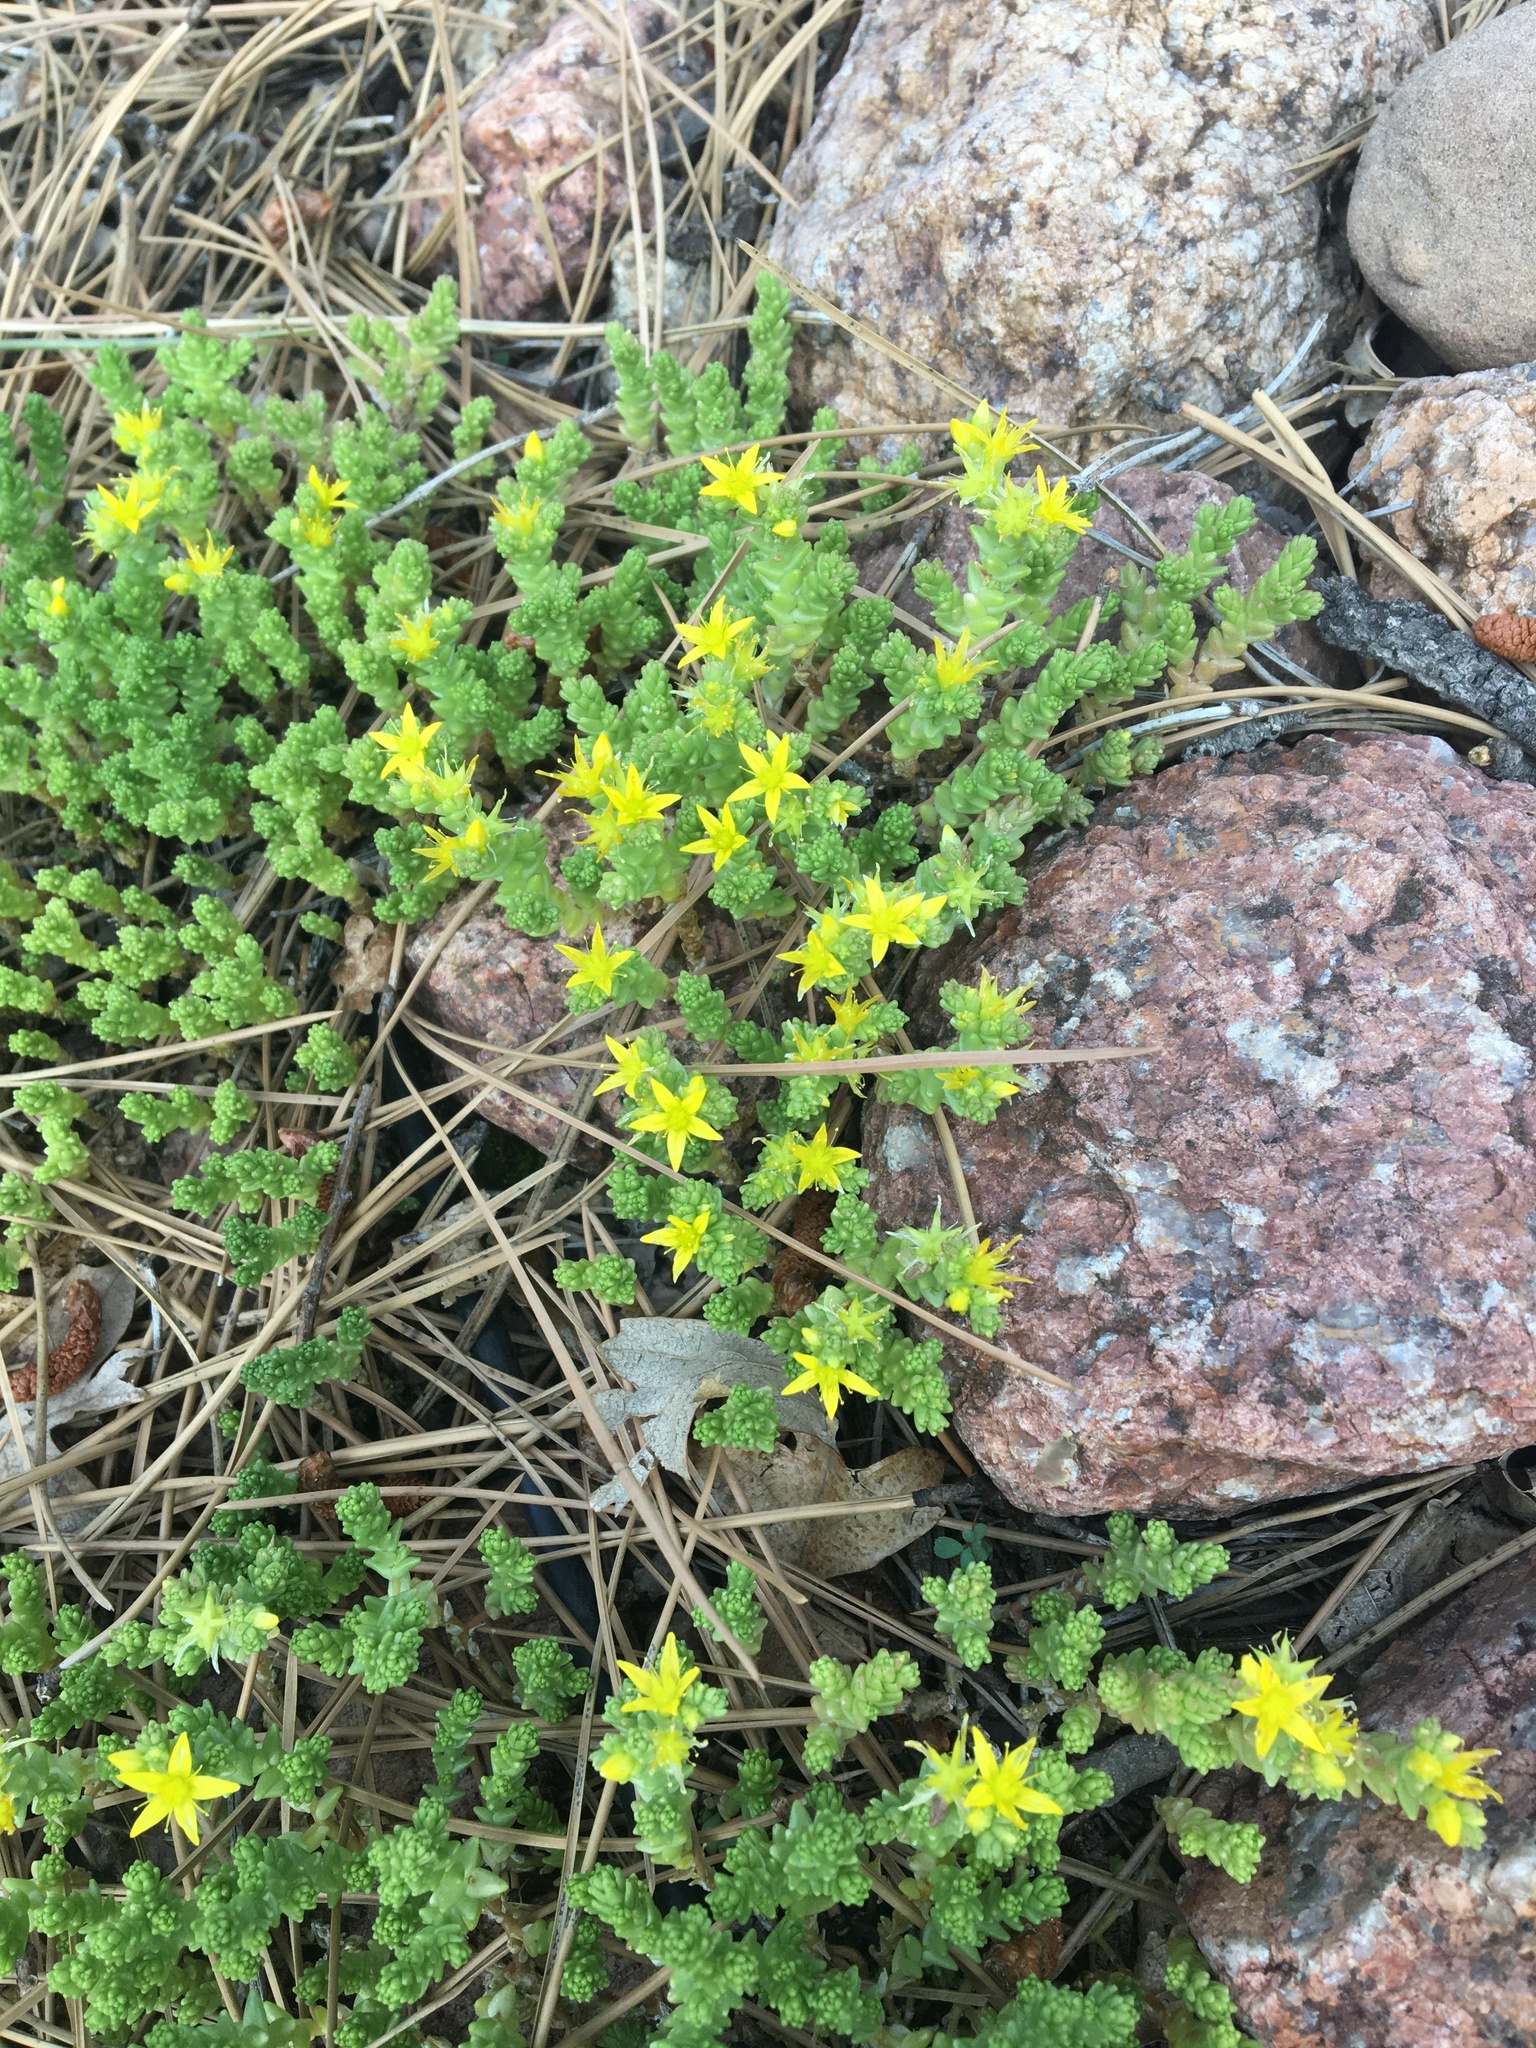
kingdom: Plantae
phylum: Tracheophyta
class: Magnoliopsida
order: Saxifragales
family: Crassulaceae
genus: Sedum
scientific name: Sedum lanceolatum
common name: Common stonecrop
